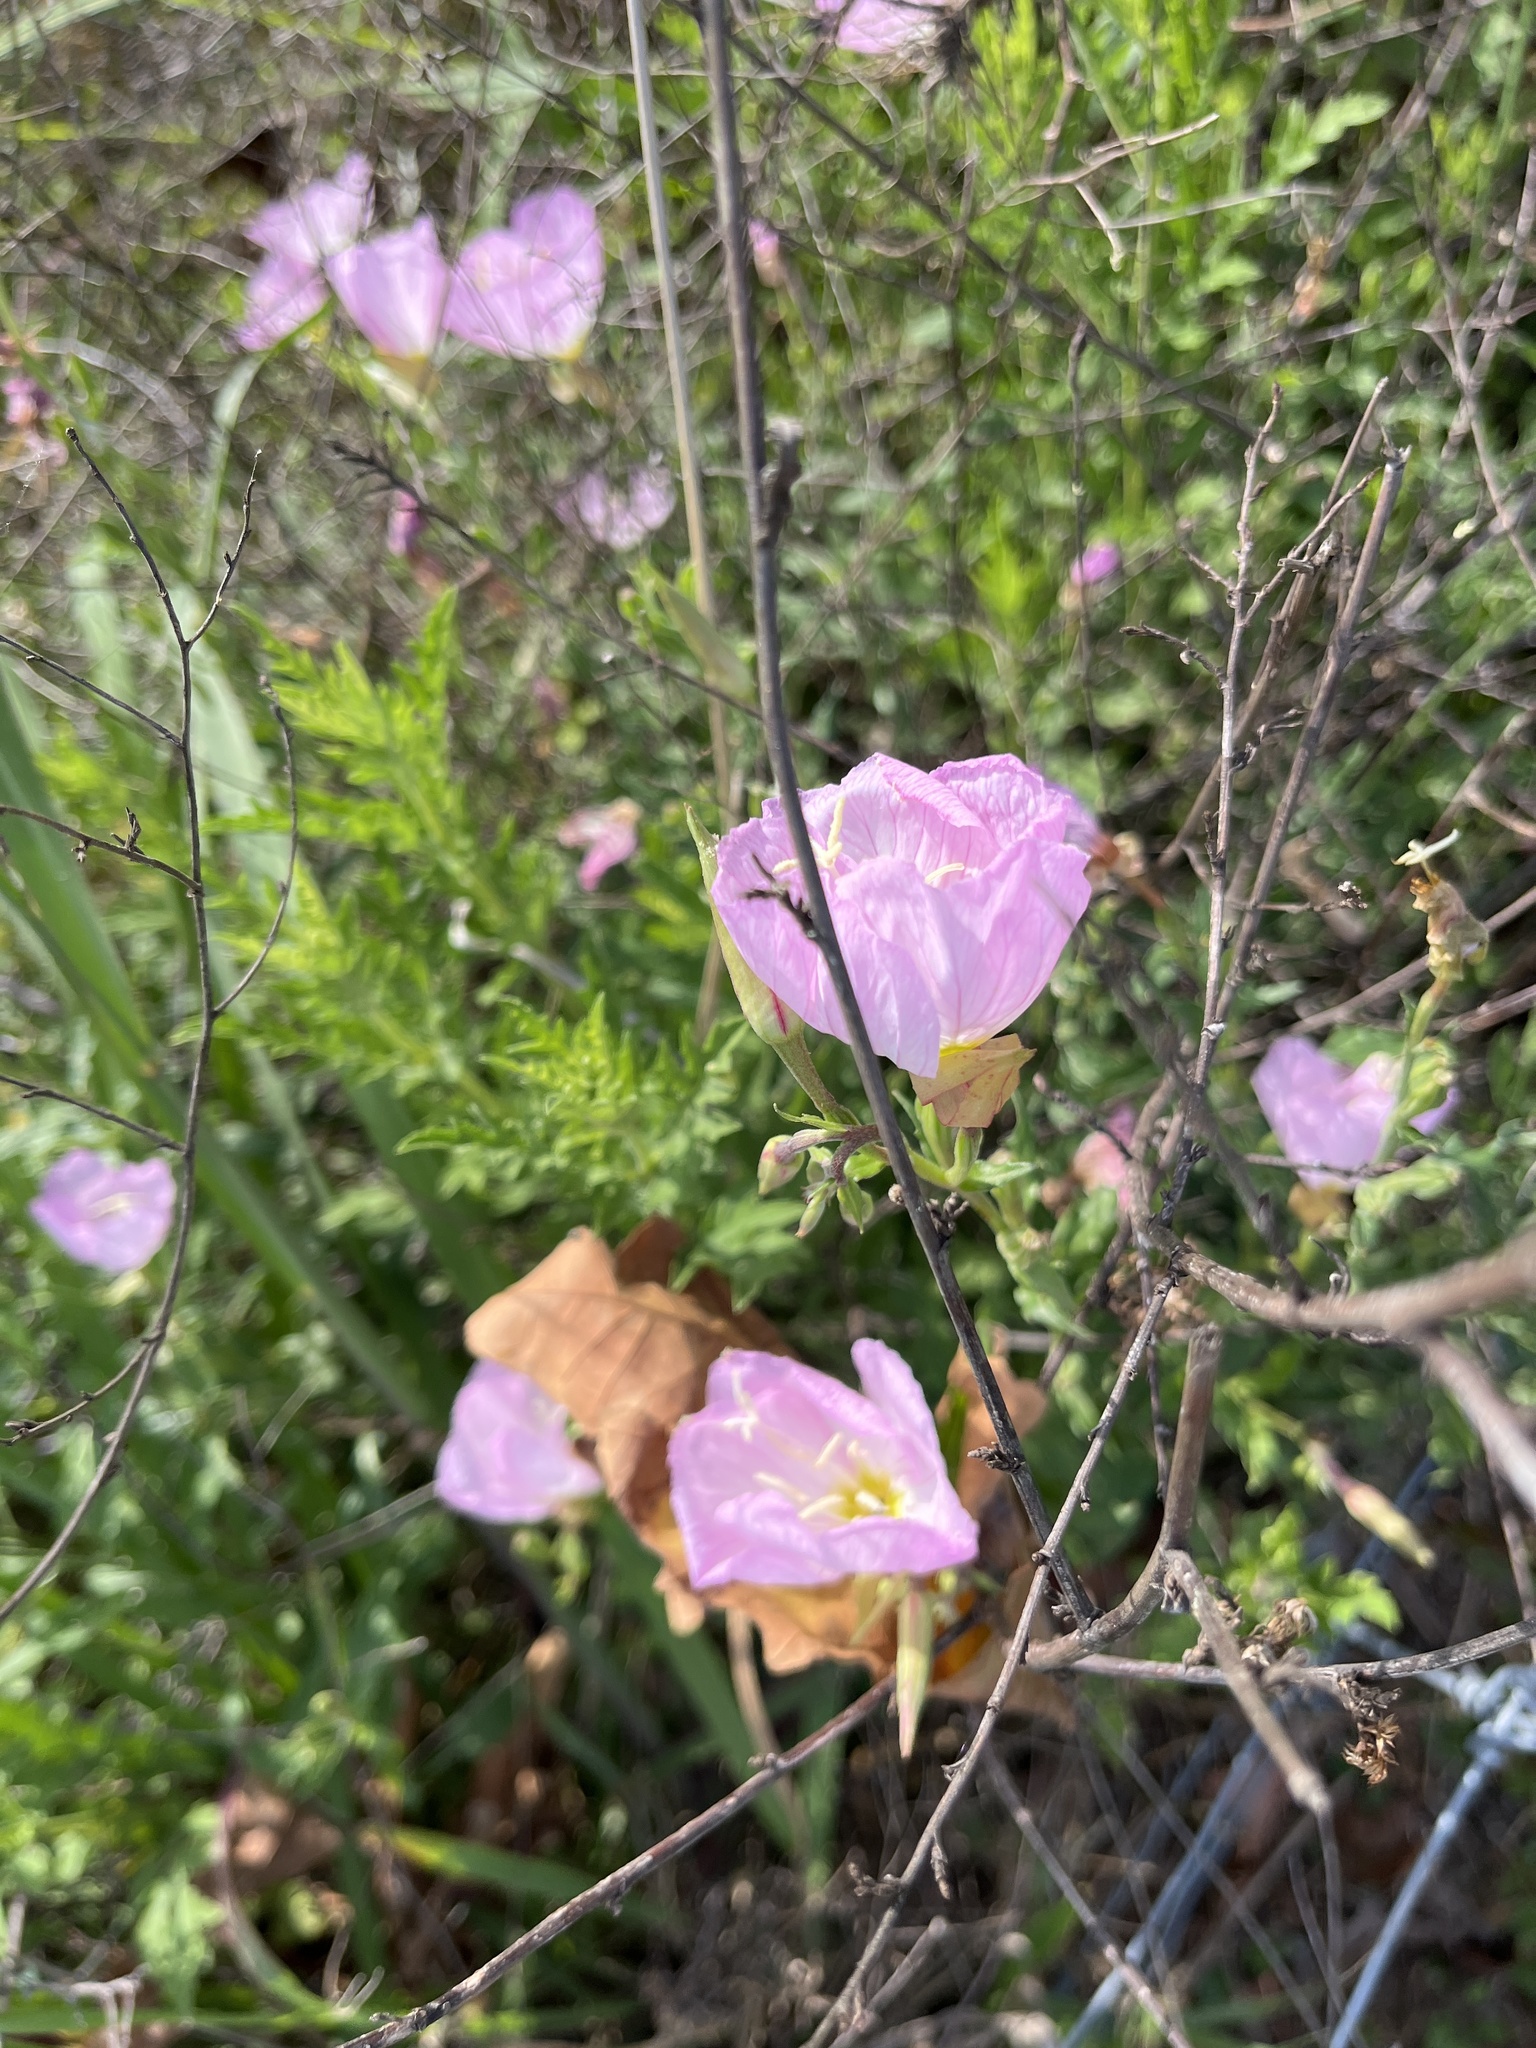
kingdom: Plantae
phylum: Tracheophyta
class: Magnoliopsida
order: Myrtales
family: Onagraceae
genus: Oenothera
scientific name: Oenothera speciosa
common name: White evening-primrose
